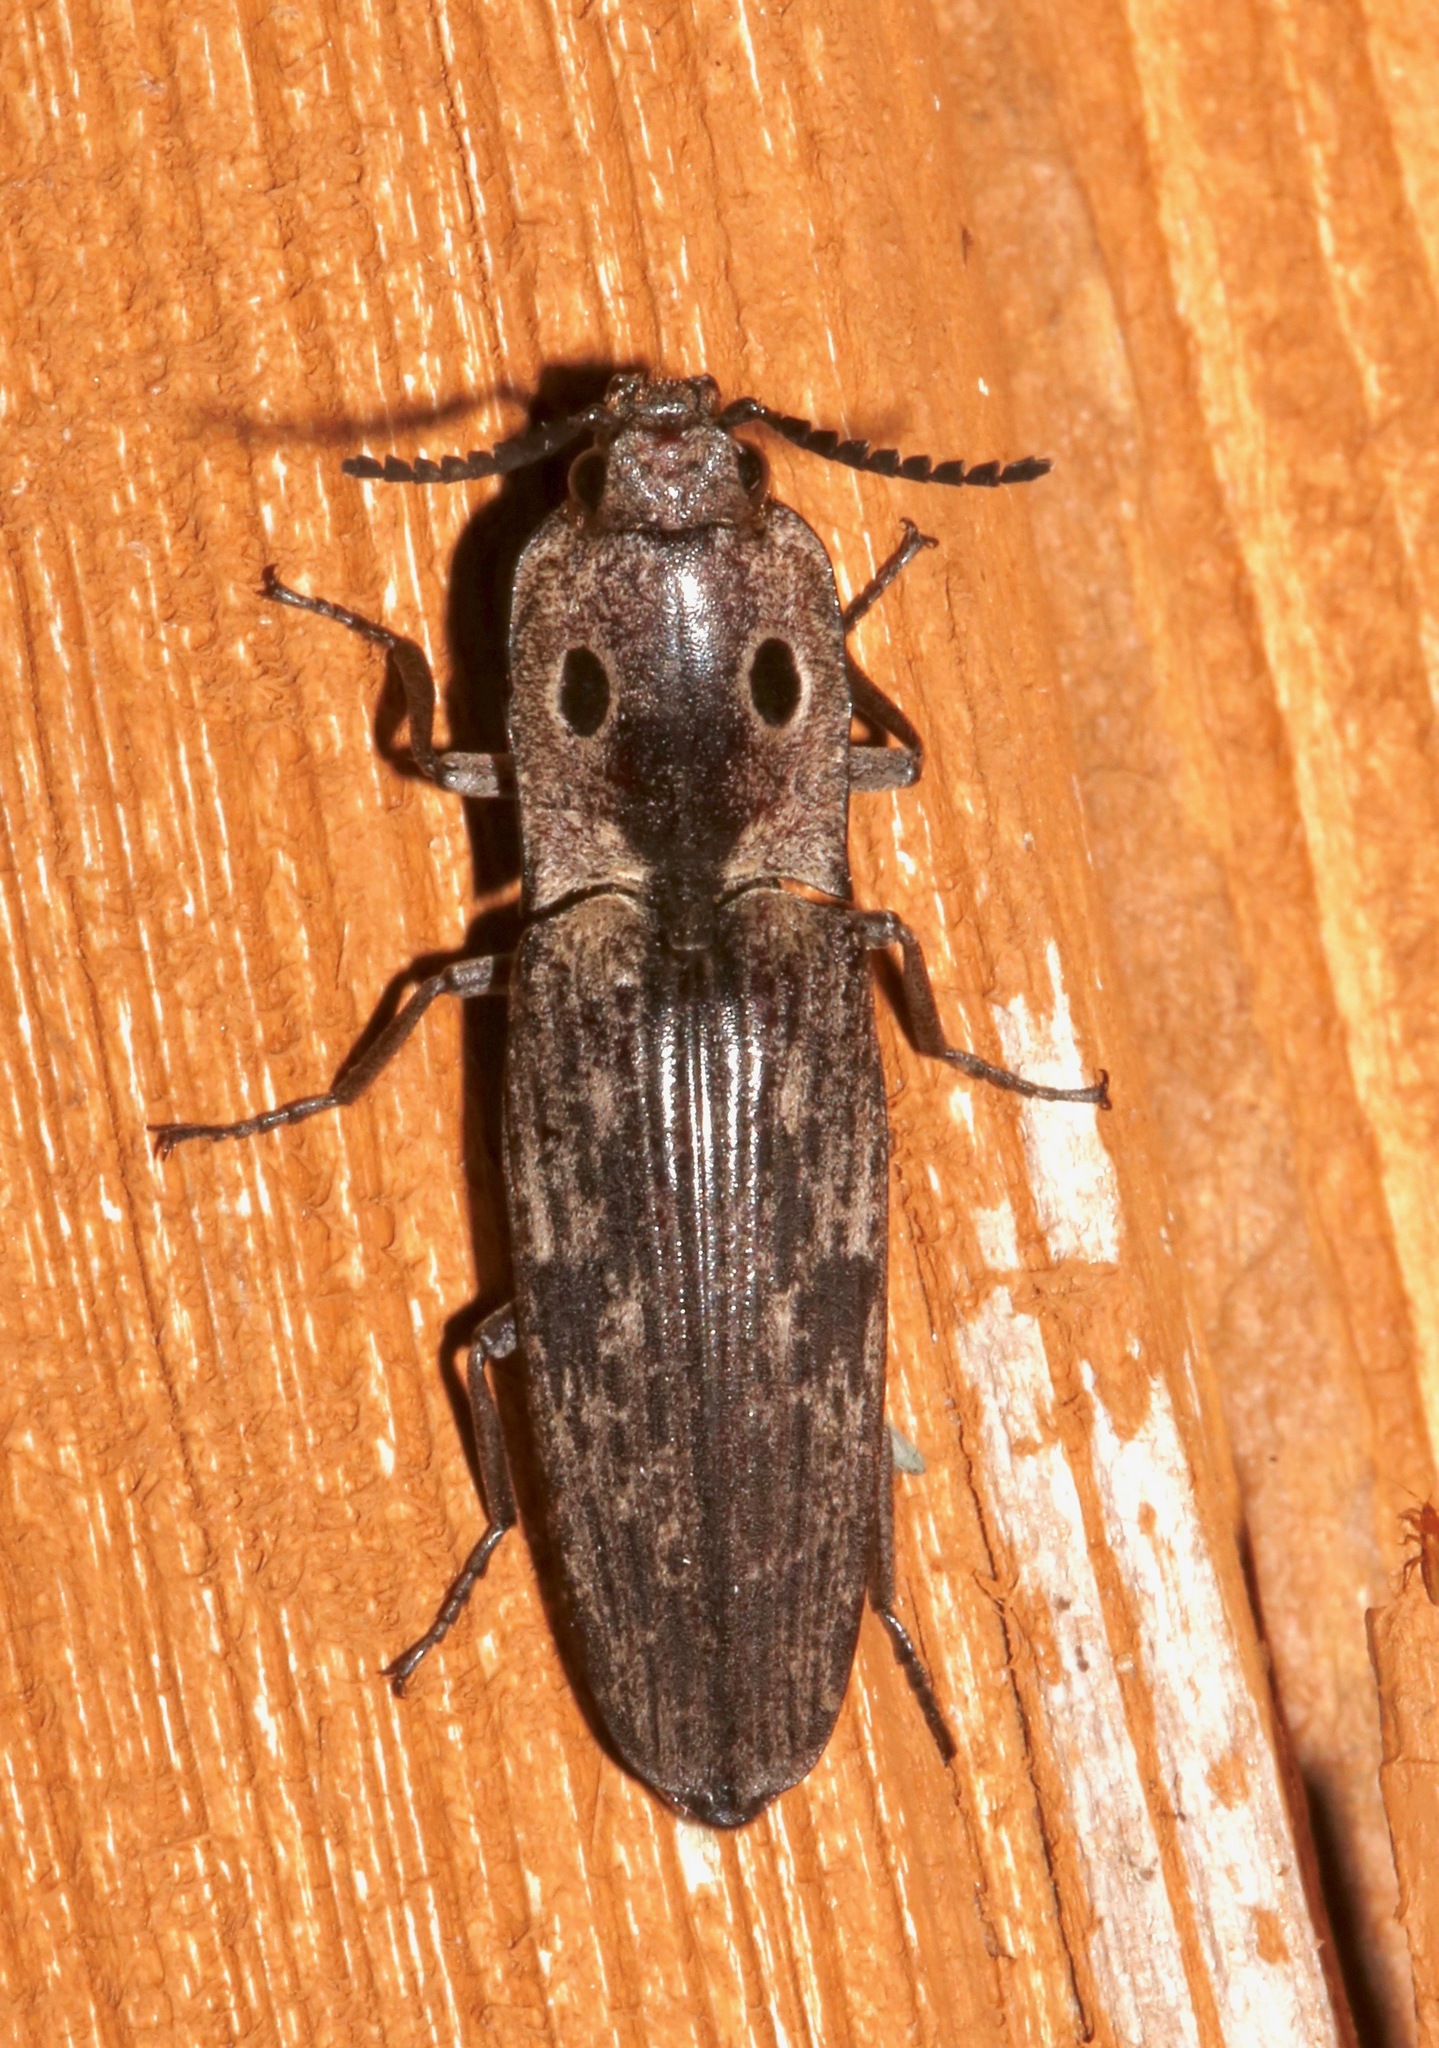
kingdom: Animalia
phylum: Arthropoda
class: Insecta
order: Coleoptera
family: Elateridae
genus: Alaus
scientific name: Alaus myops
